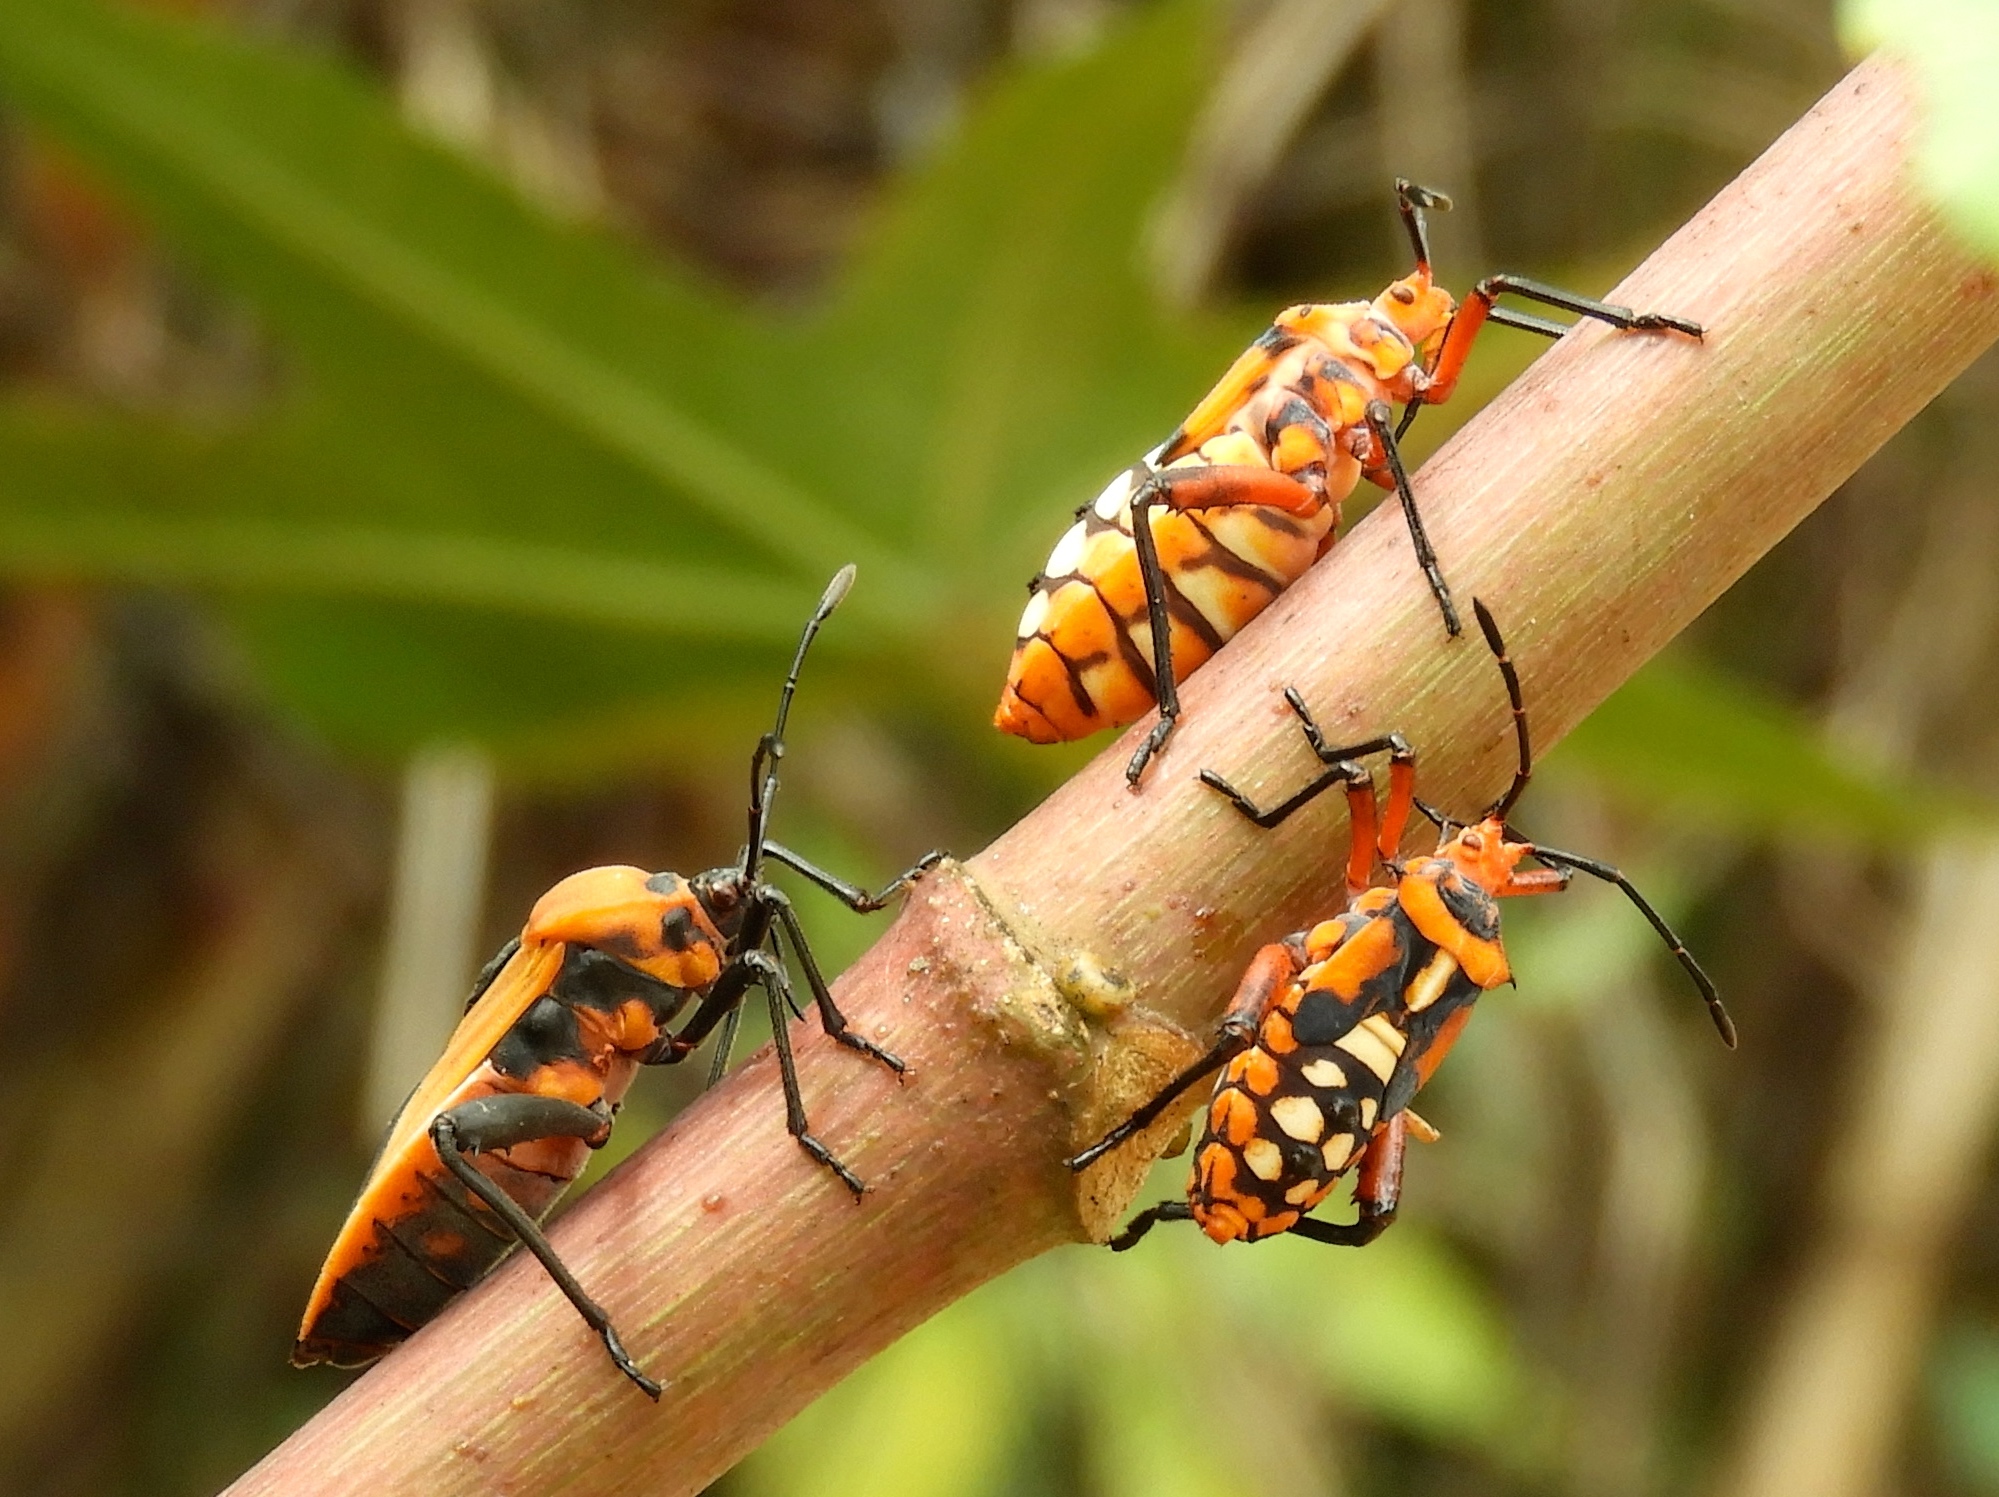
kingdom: Animalia
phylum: Arthropoda
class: Insecta
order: Hemiptera
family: Coreidae
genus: Sagotylus
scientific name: Sagotylus confluens
